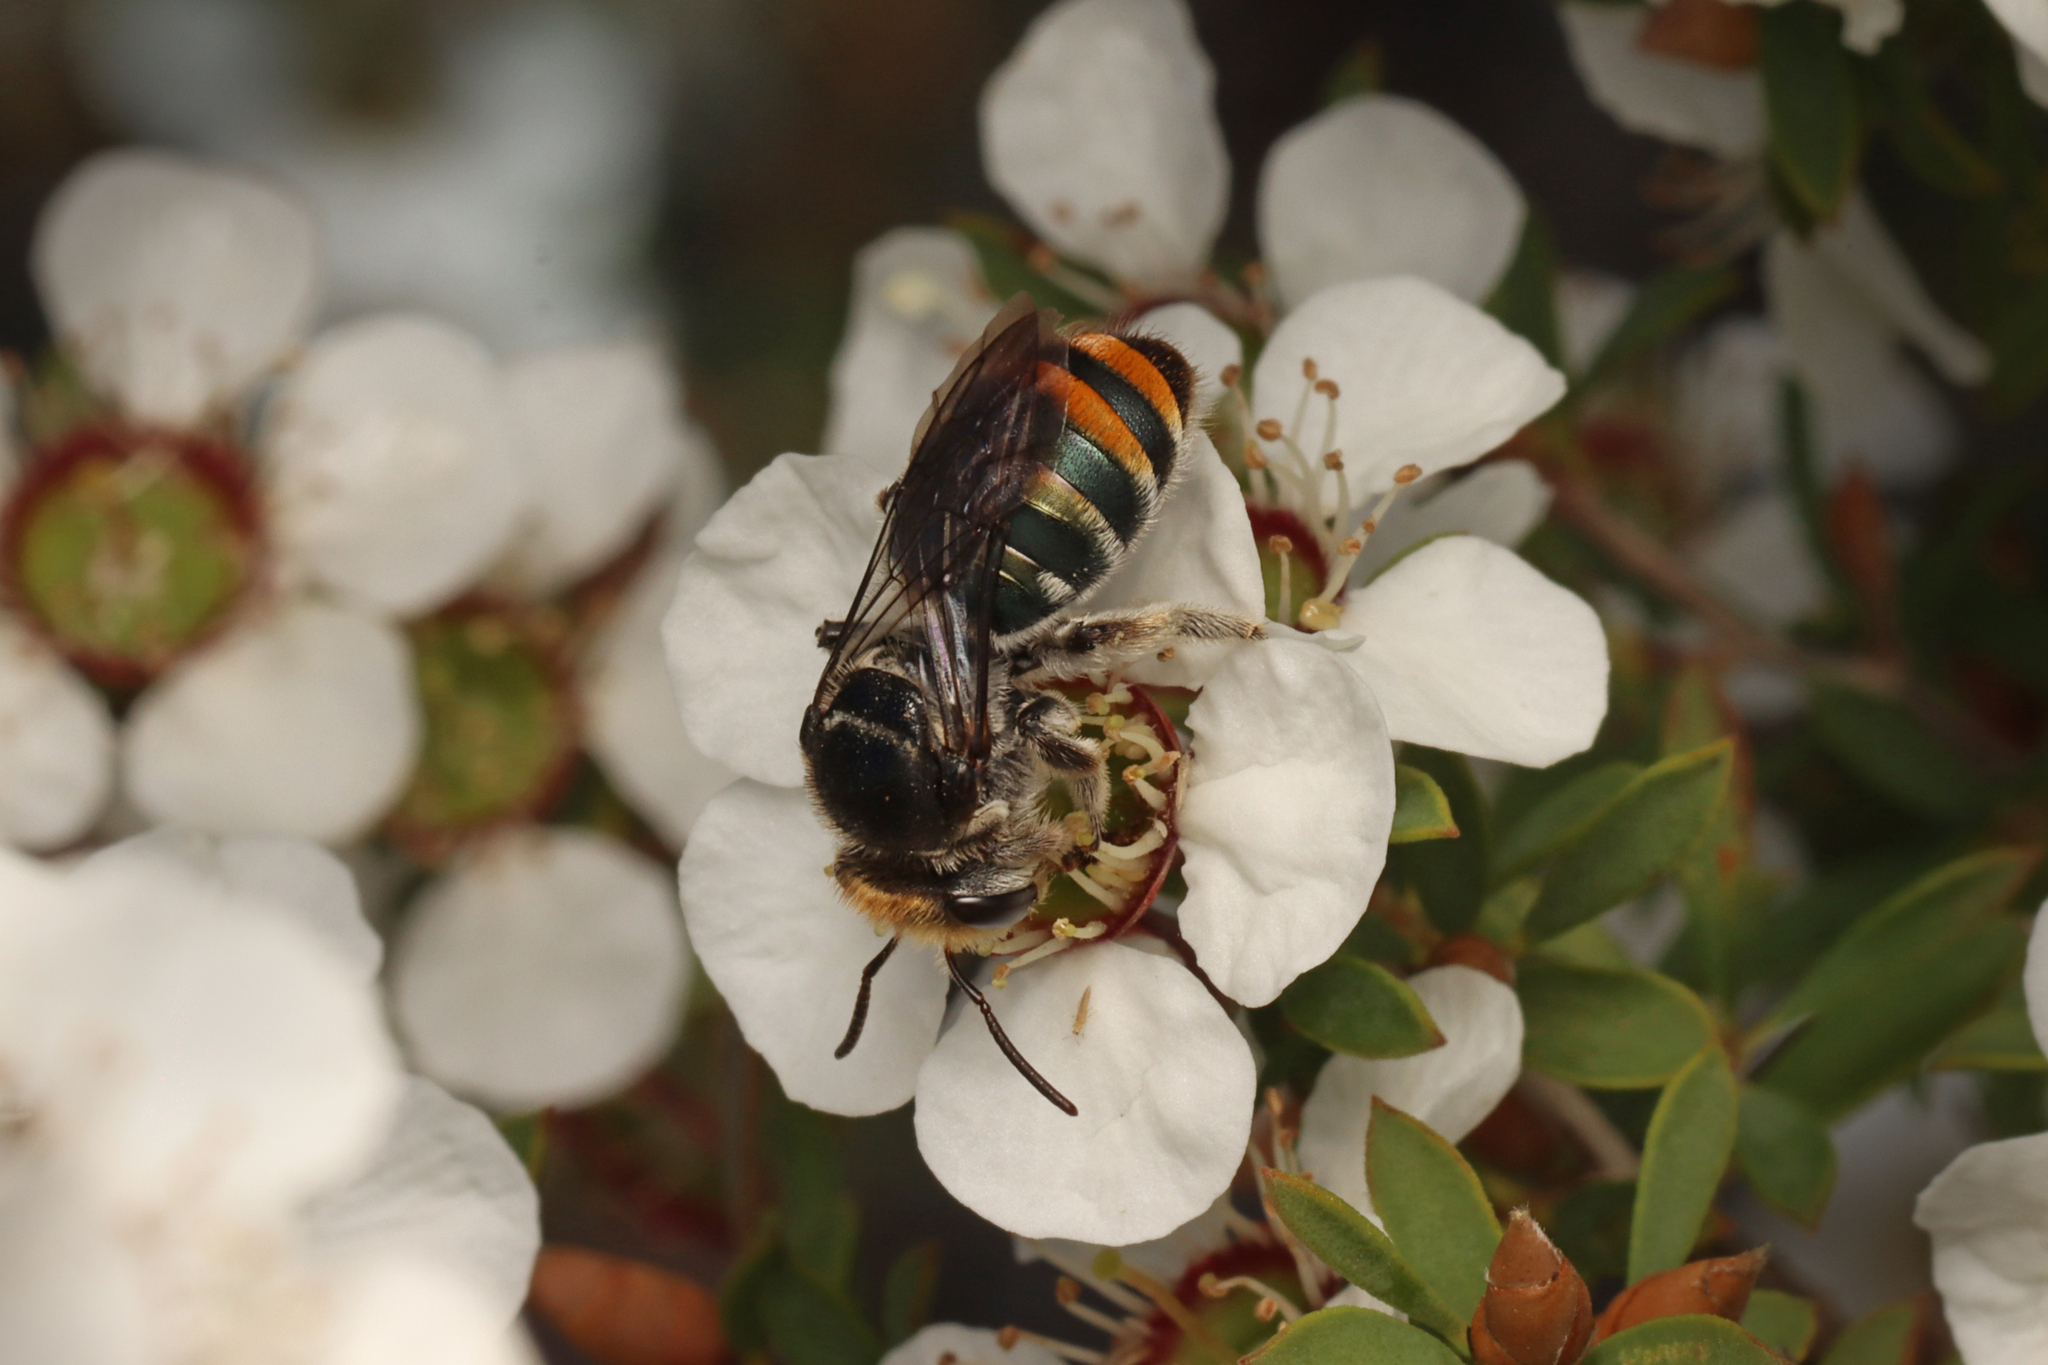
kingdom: Animalia
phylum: Arthropoda
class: Insecta
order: Hymenoptera
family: Halictidae
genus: Lipotriches
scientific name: Lipotriches australica
